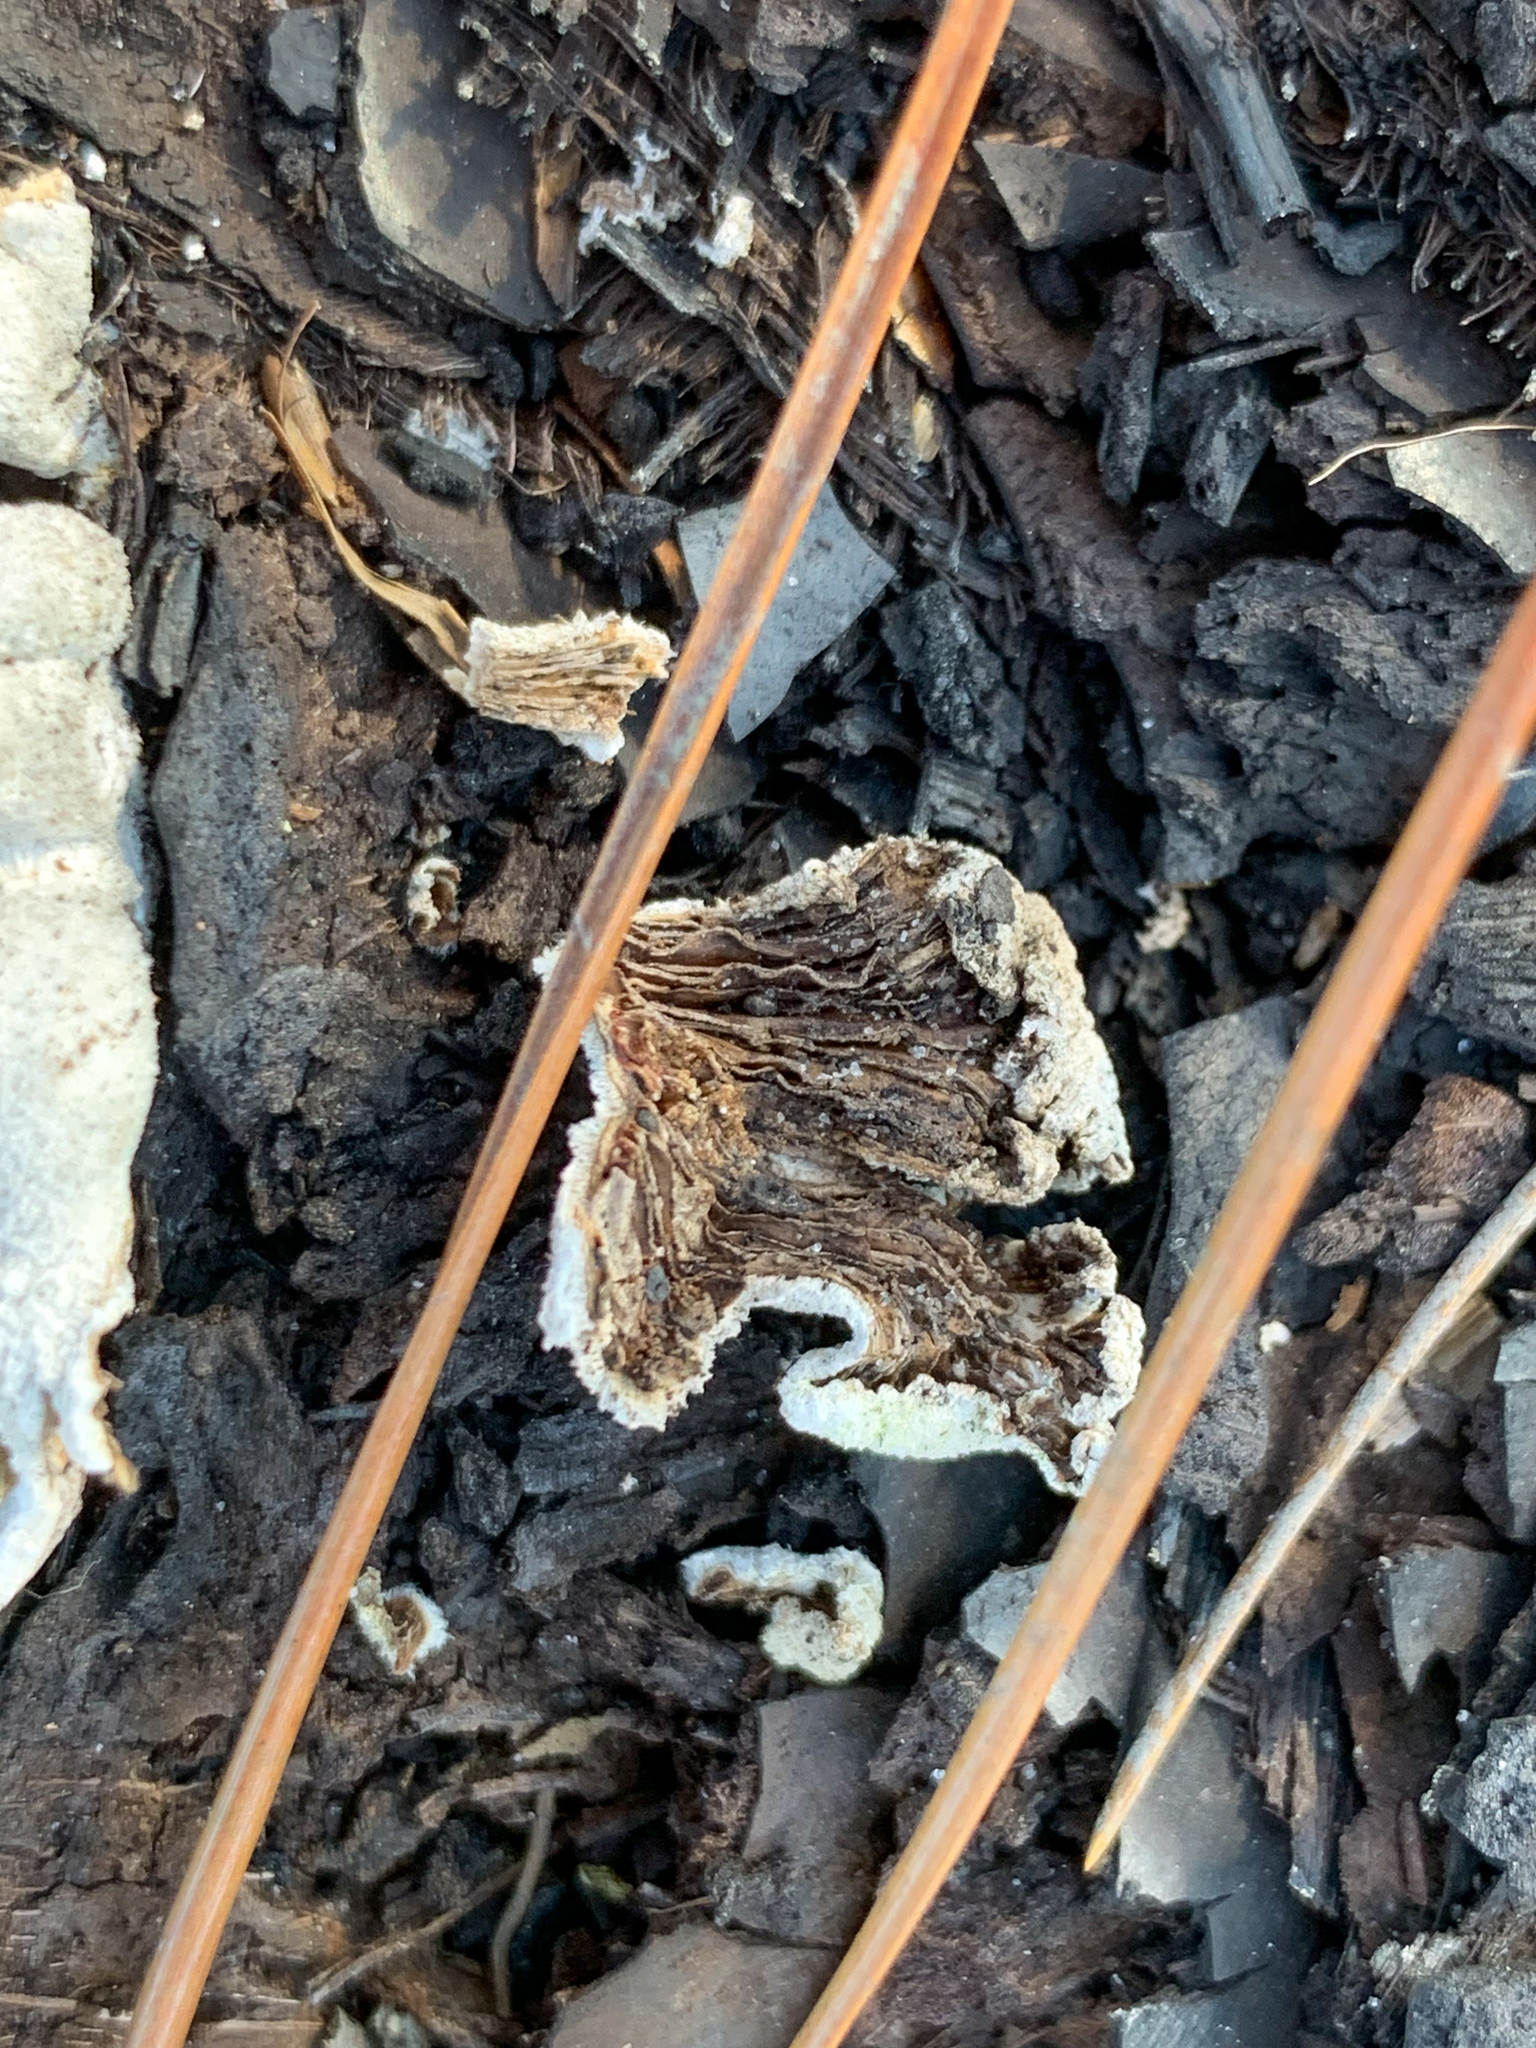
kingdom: Fungi
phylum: Basidiomycota
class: Agaricomycetes
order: Agaricales
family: Schizophyllaceae
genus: Schizophyllum
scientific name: Schizophyllum commune
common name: Common porecrust
